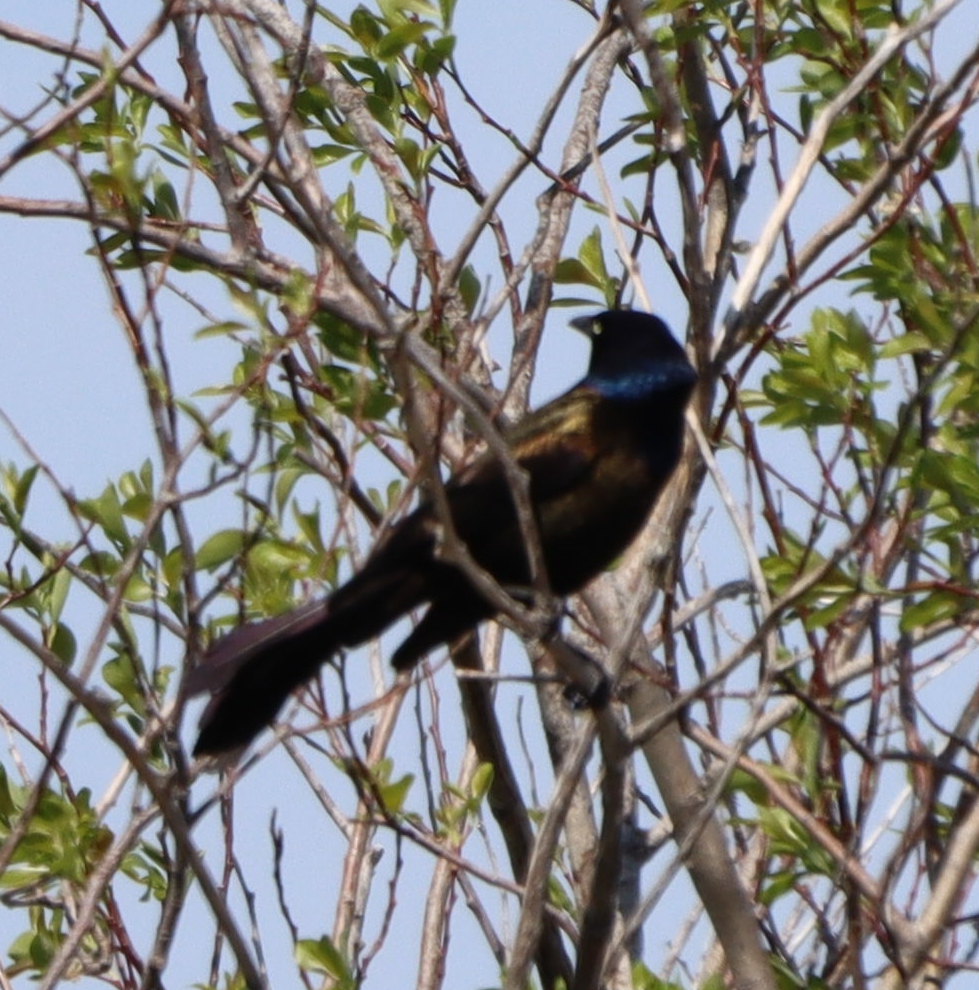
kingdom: Animalia
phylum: Chordata
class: Aves
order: Passeriformes
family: Icteridae
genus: Quiscalus
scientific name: Quiscalus quiscula
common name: Common grackle
